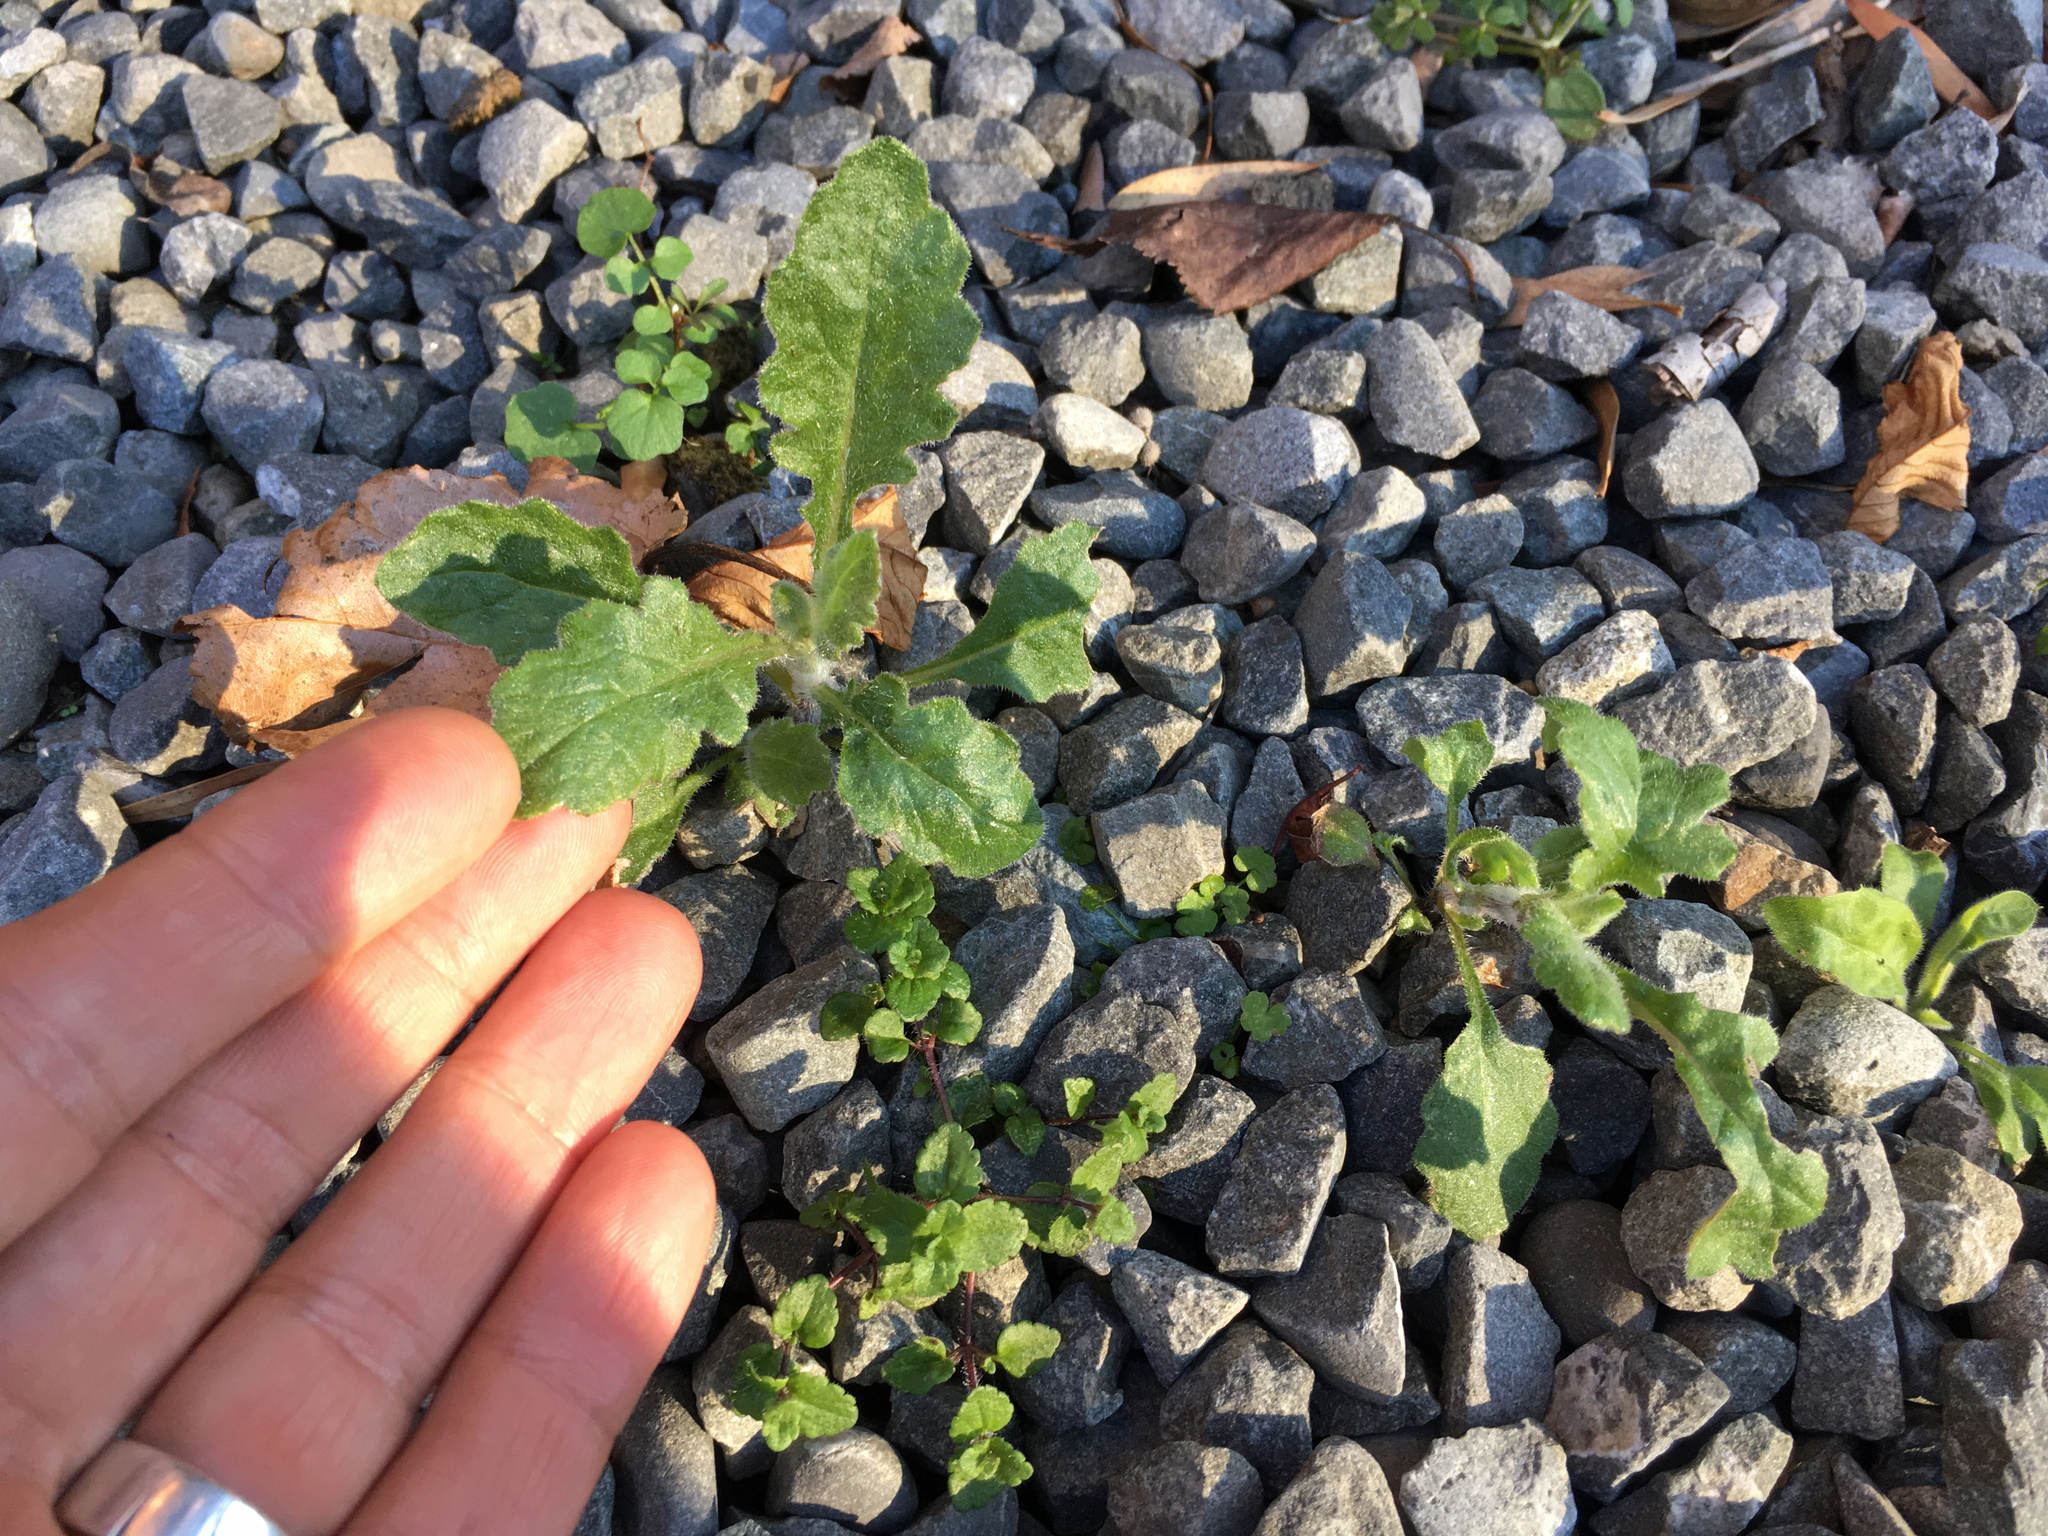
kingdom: Plantae
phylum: Tracheophyta
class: Magnoliopsida
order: Asterales
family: Asteraceae
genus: Senecio
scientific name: Senecio glomeratus
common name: Cutleaf burnweed
